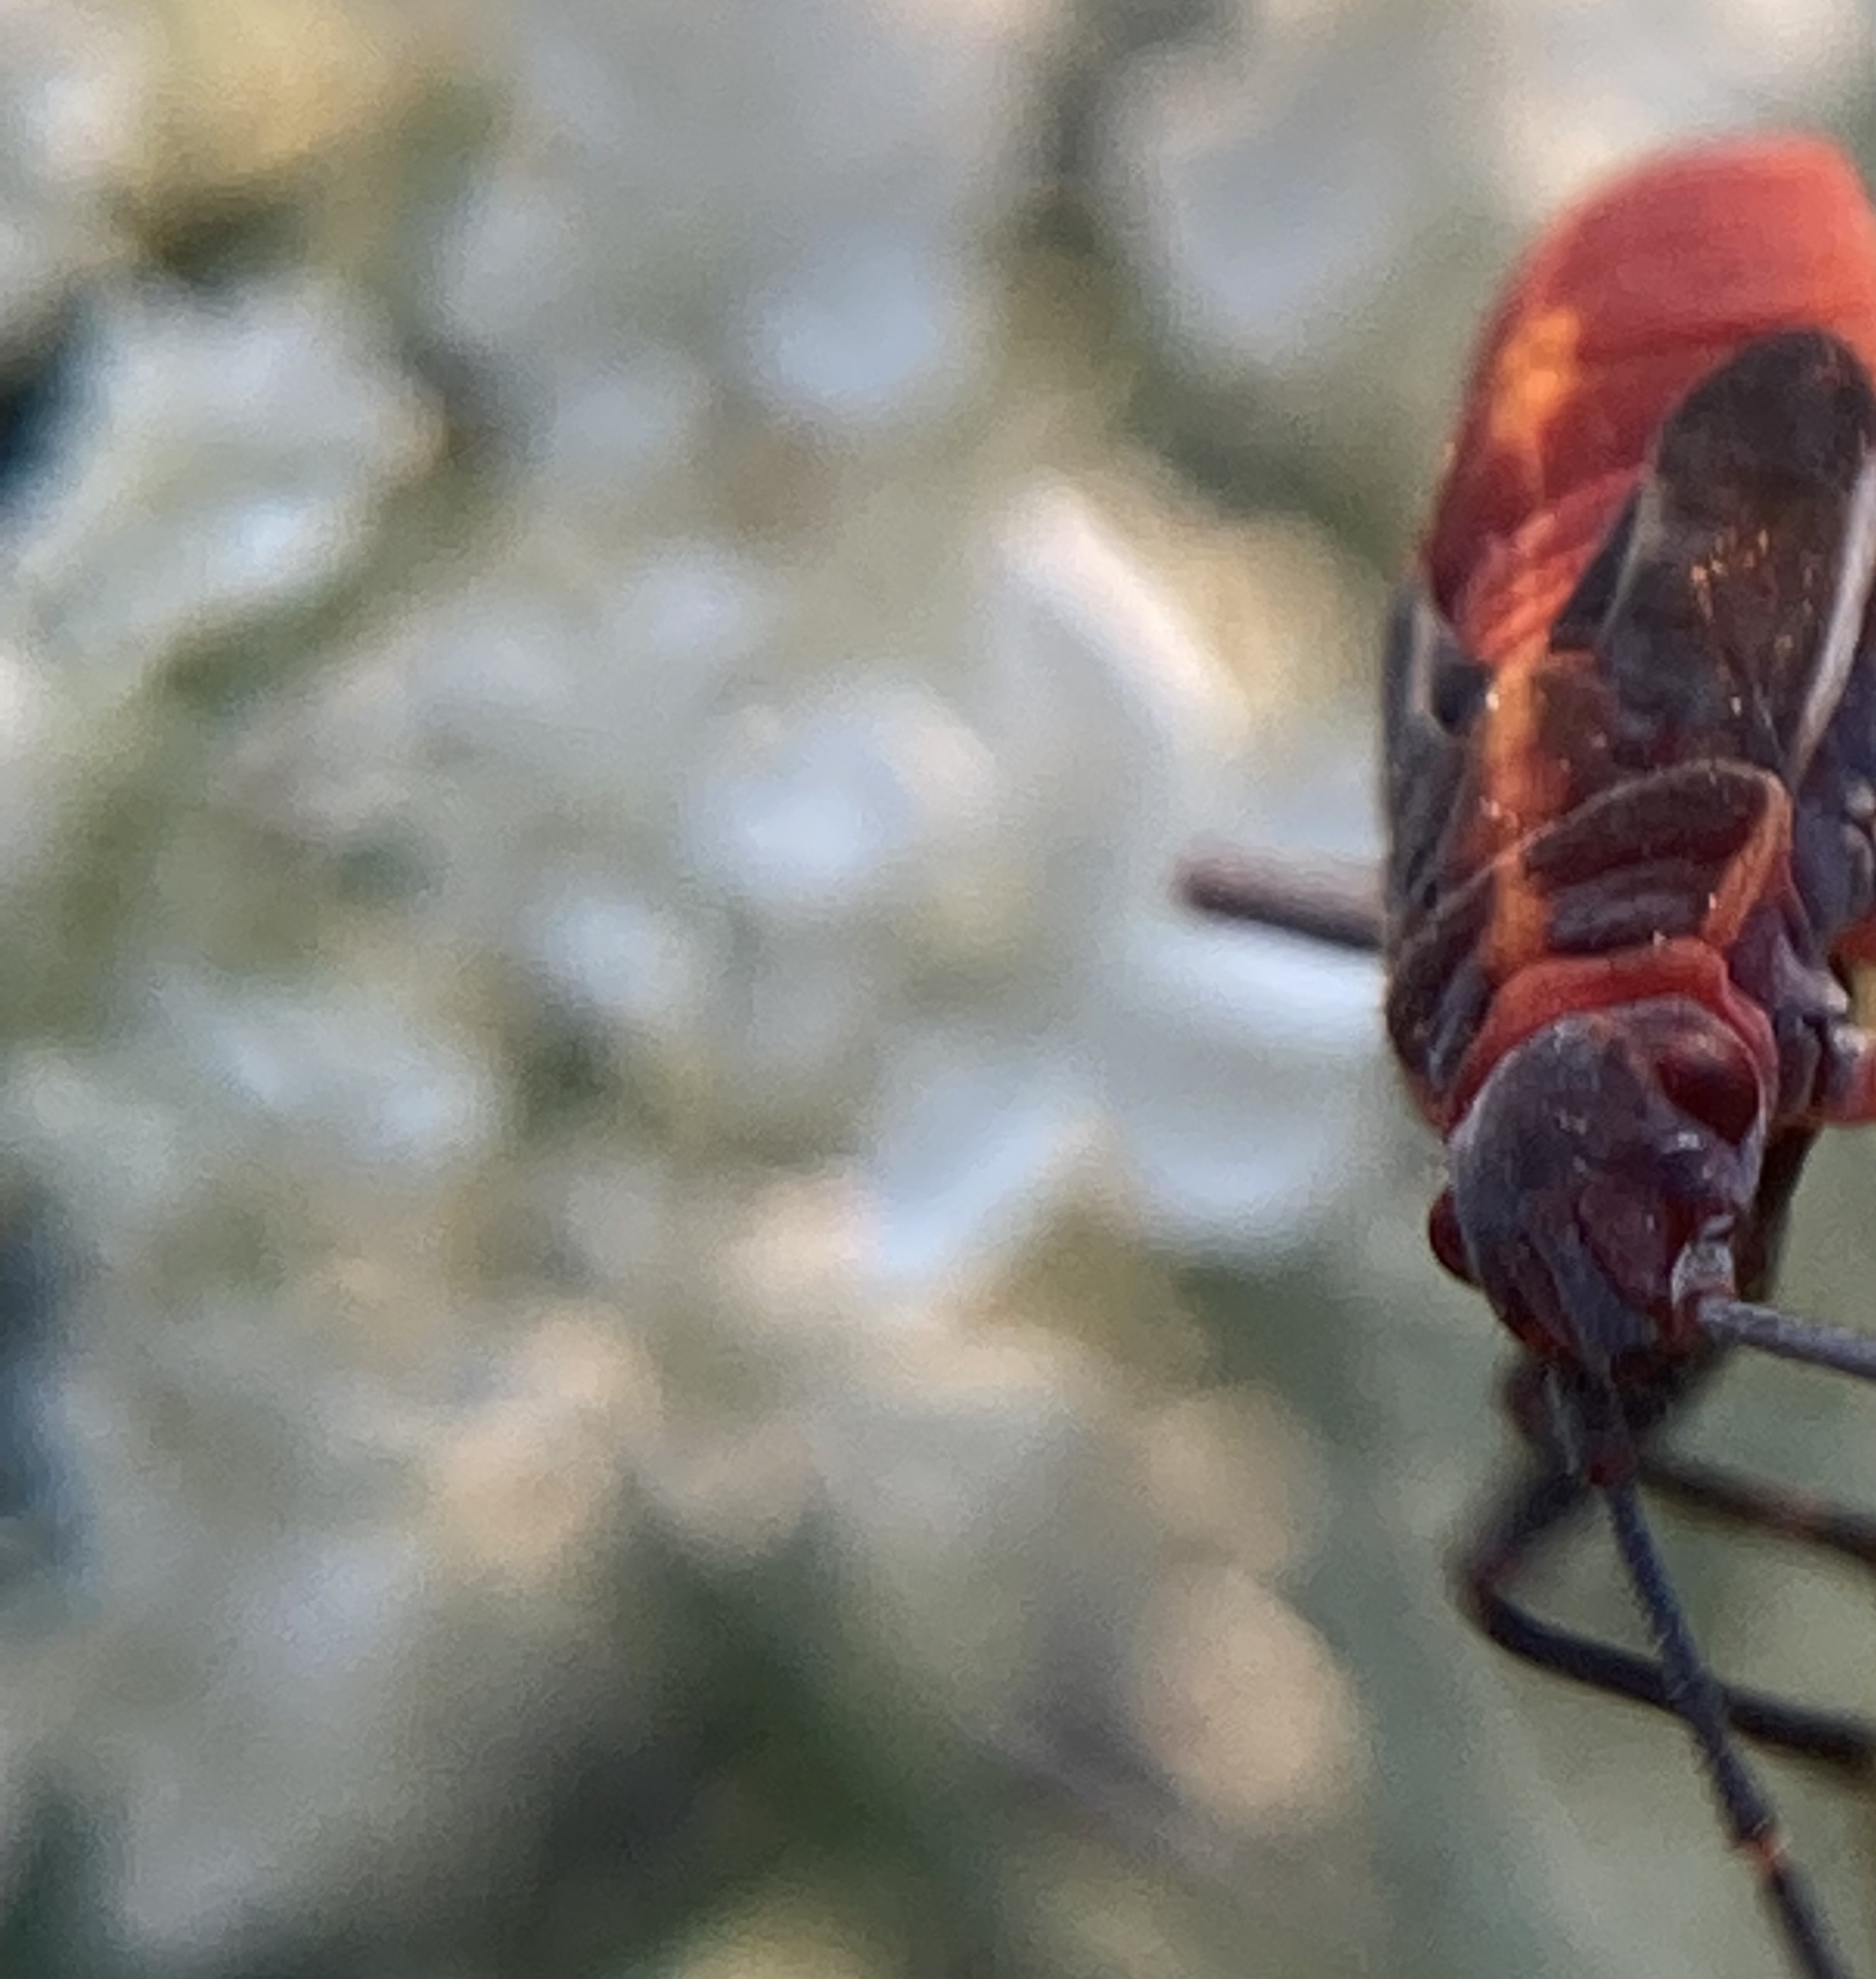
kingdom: Animalia
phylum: Arthropoda
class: Insecta
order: Hemiptera
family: Rhopalidae
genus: Boisea
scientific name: Boisea trivittata
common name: Boxelder bug
